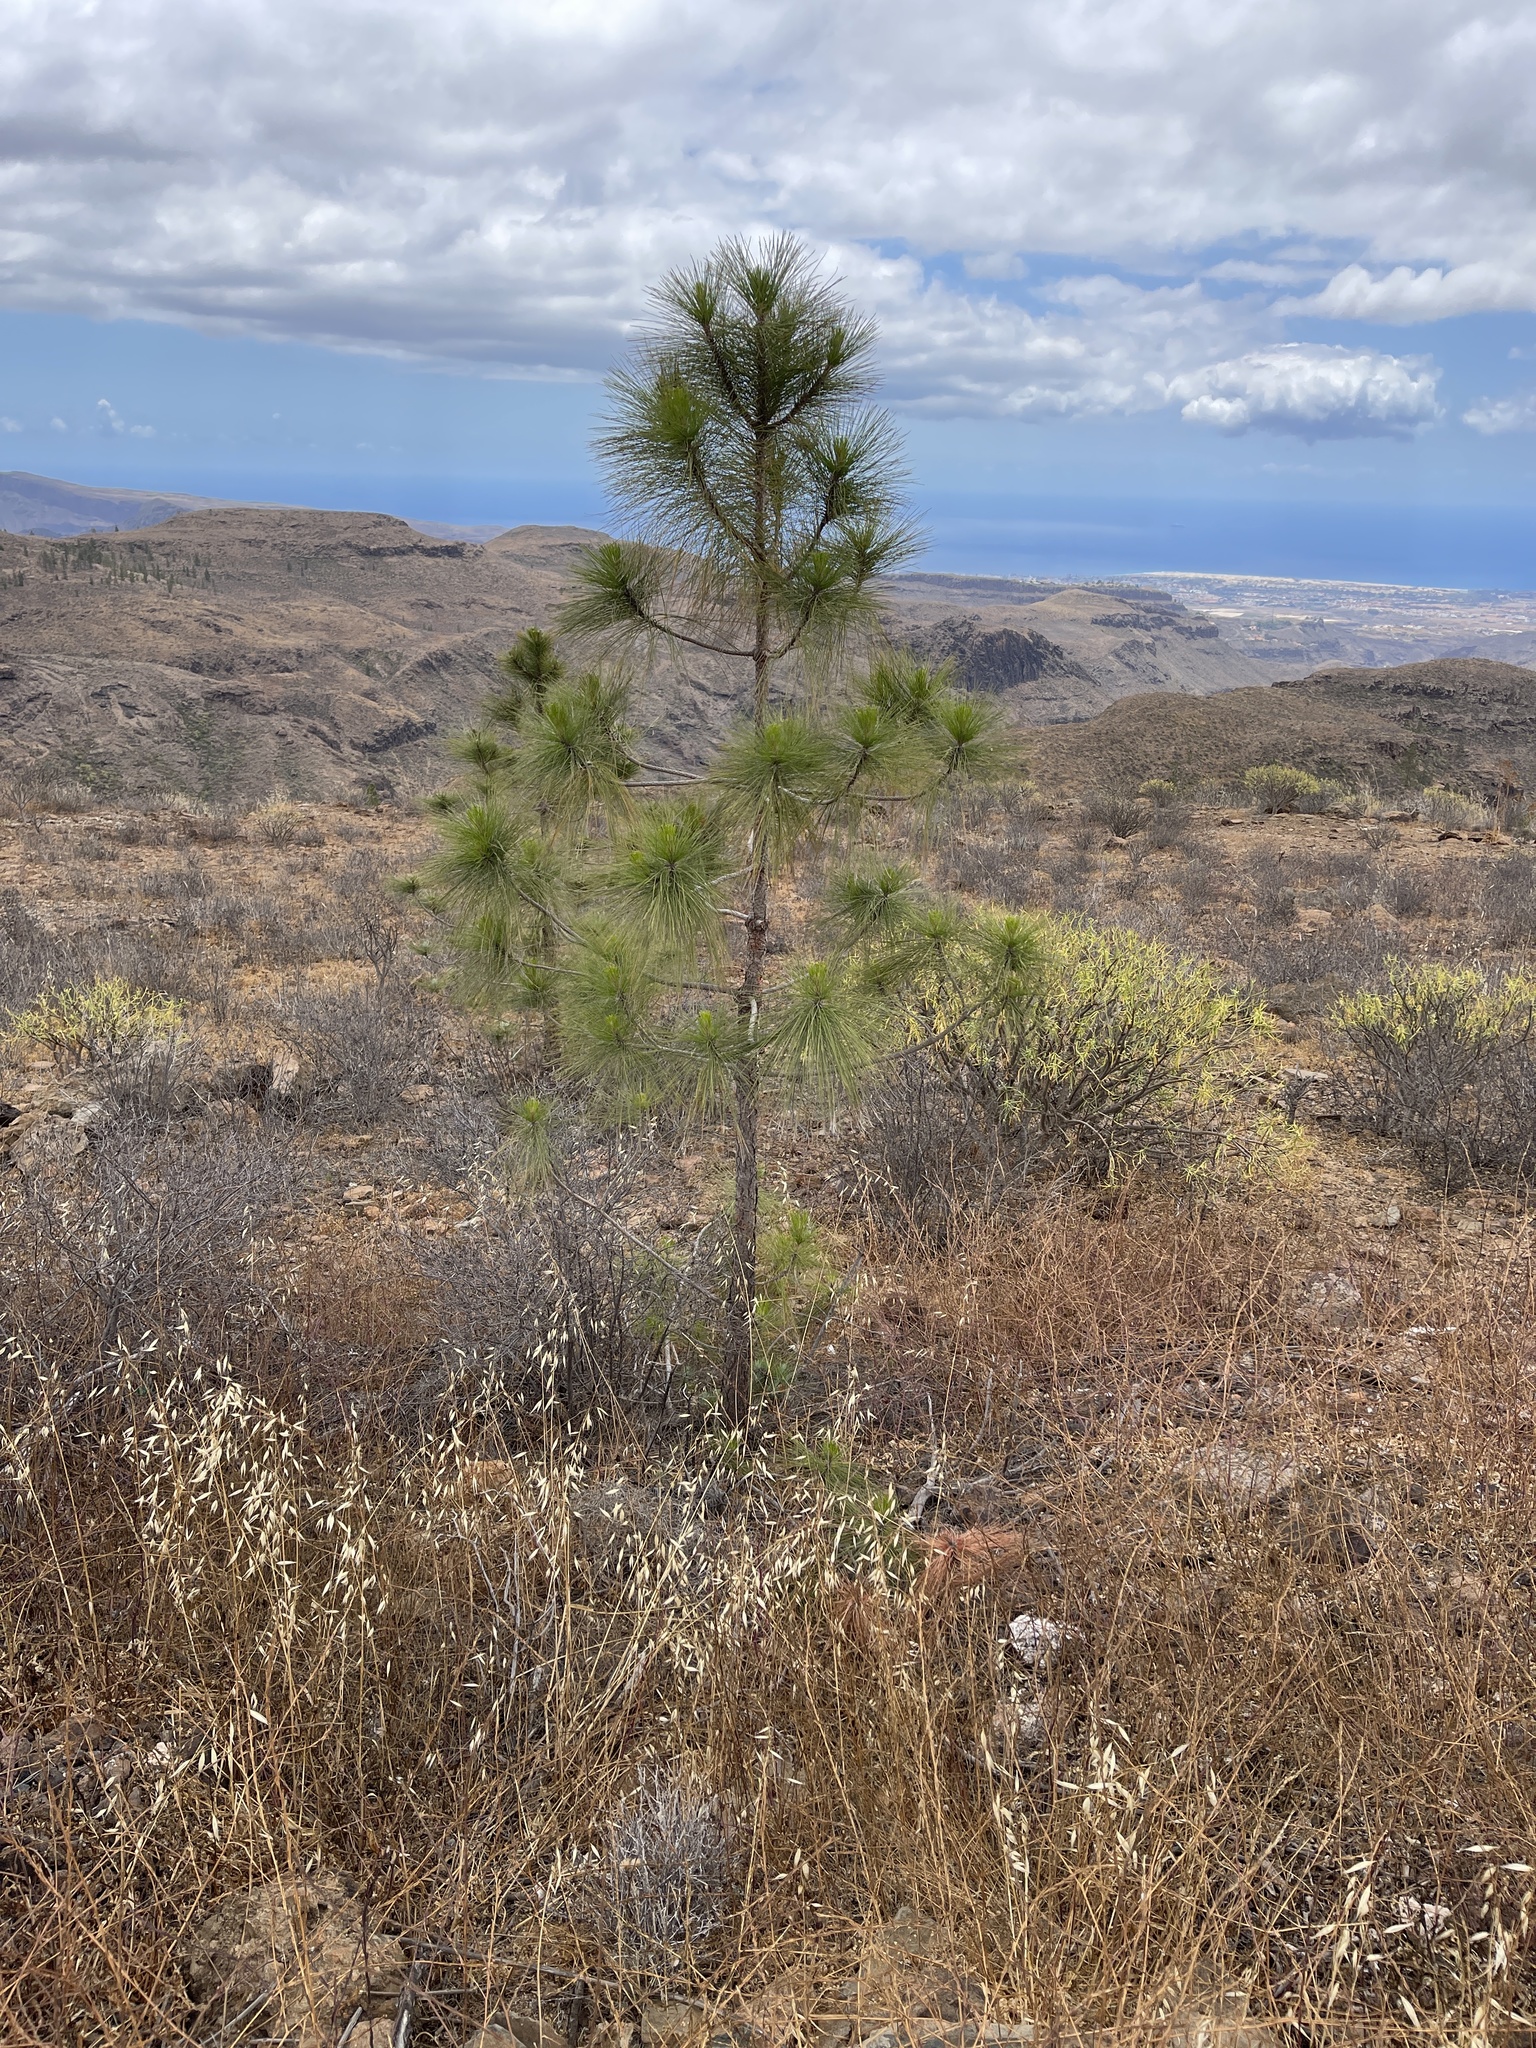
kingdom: Plantae
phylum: Tracheophyta
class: Pinopsida
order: Pinales
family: Pinaceae
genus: Pinus
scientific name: Pinus canariensis
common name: Canary islands pine
